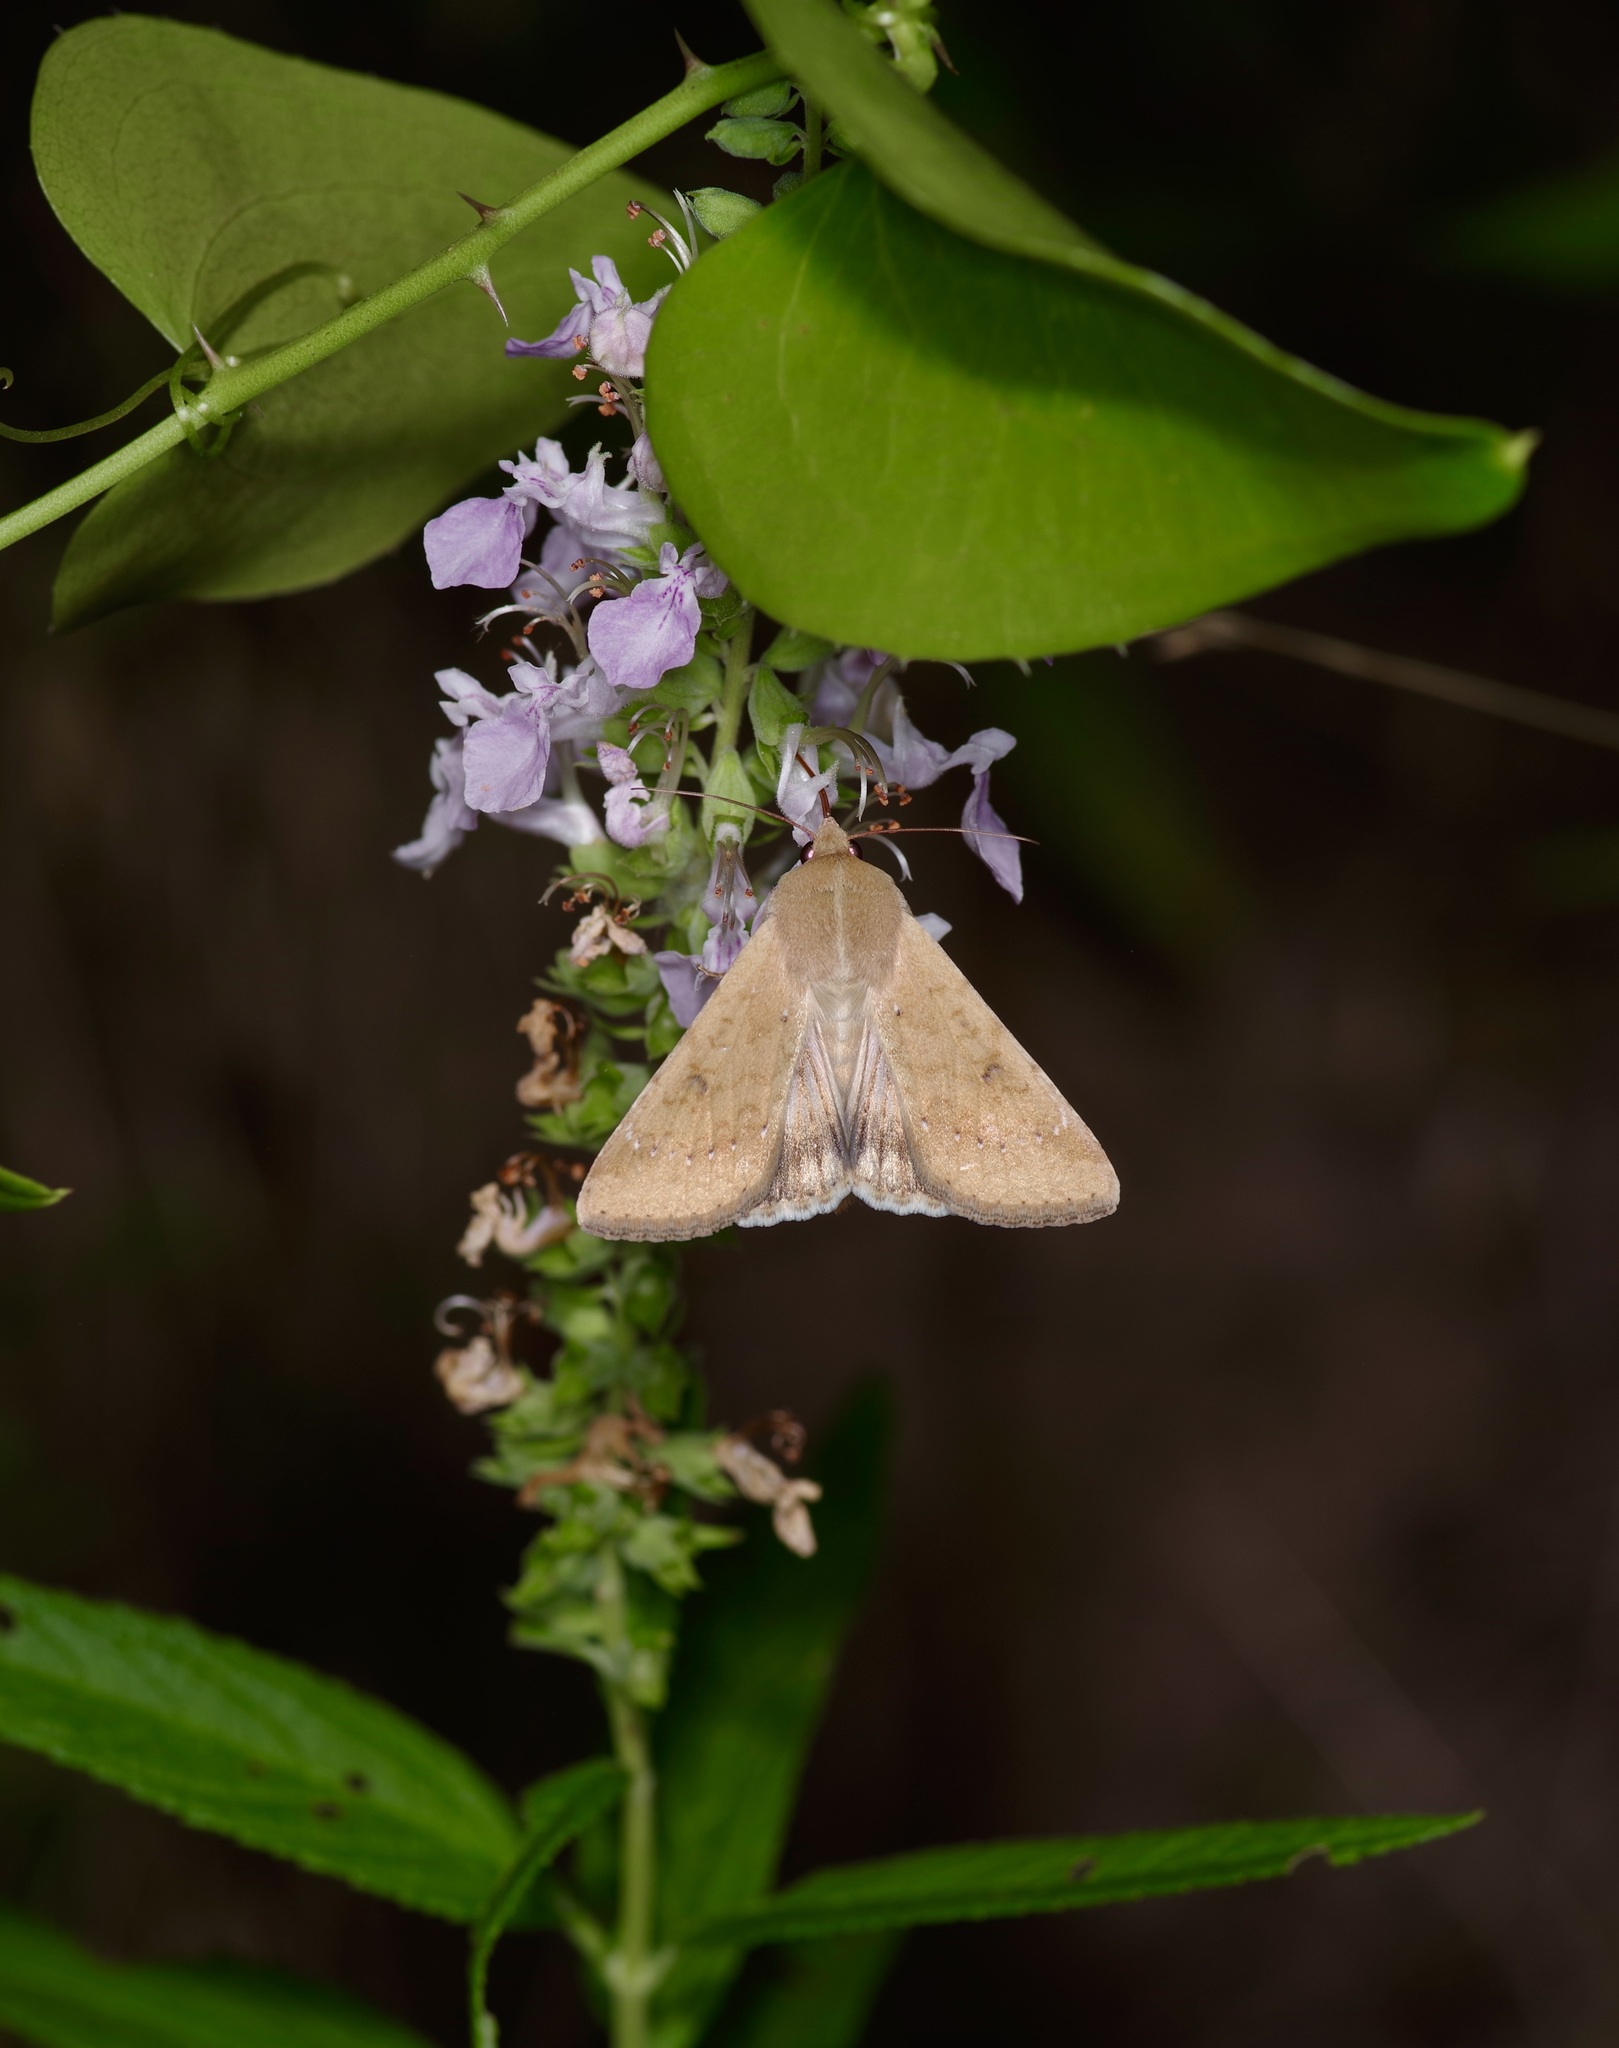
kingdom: Animalia
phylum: Arthropoda
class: Insecta
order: Lepidoptera
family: Noctuidae
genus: Helicoverpa
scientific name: Helicoverpa zea
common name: Bollworm
